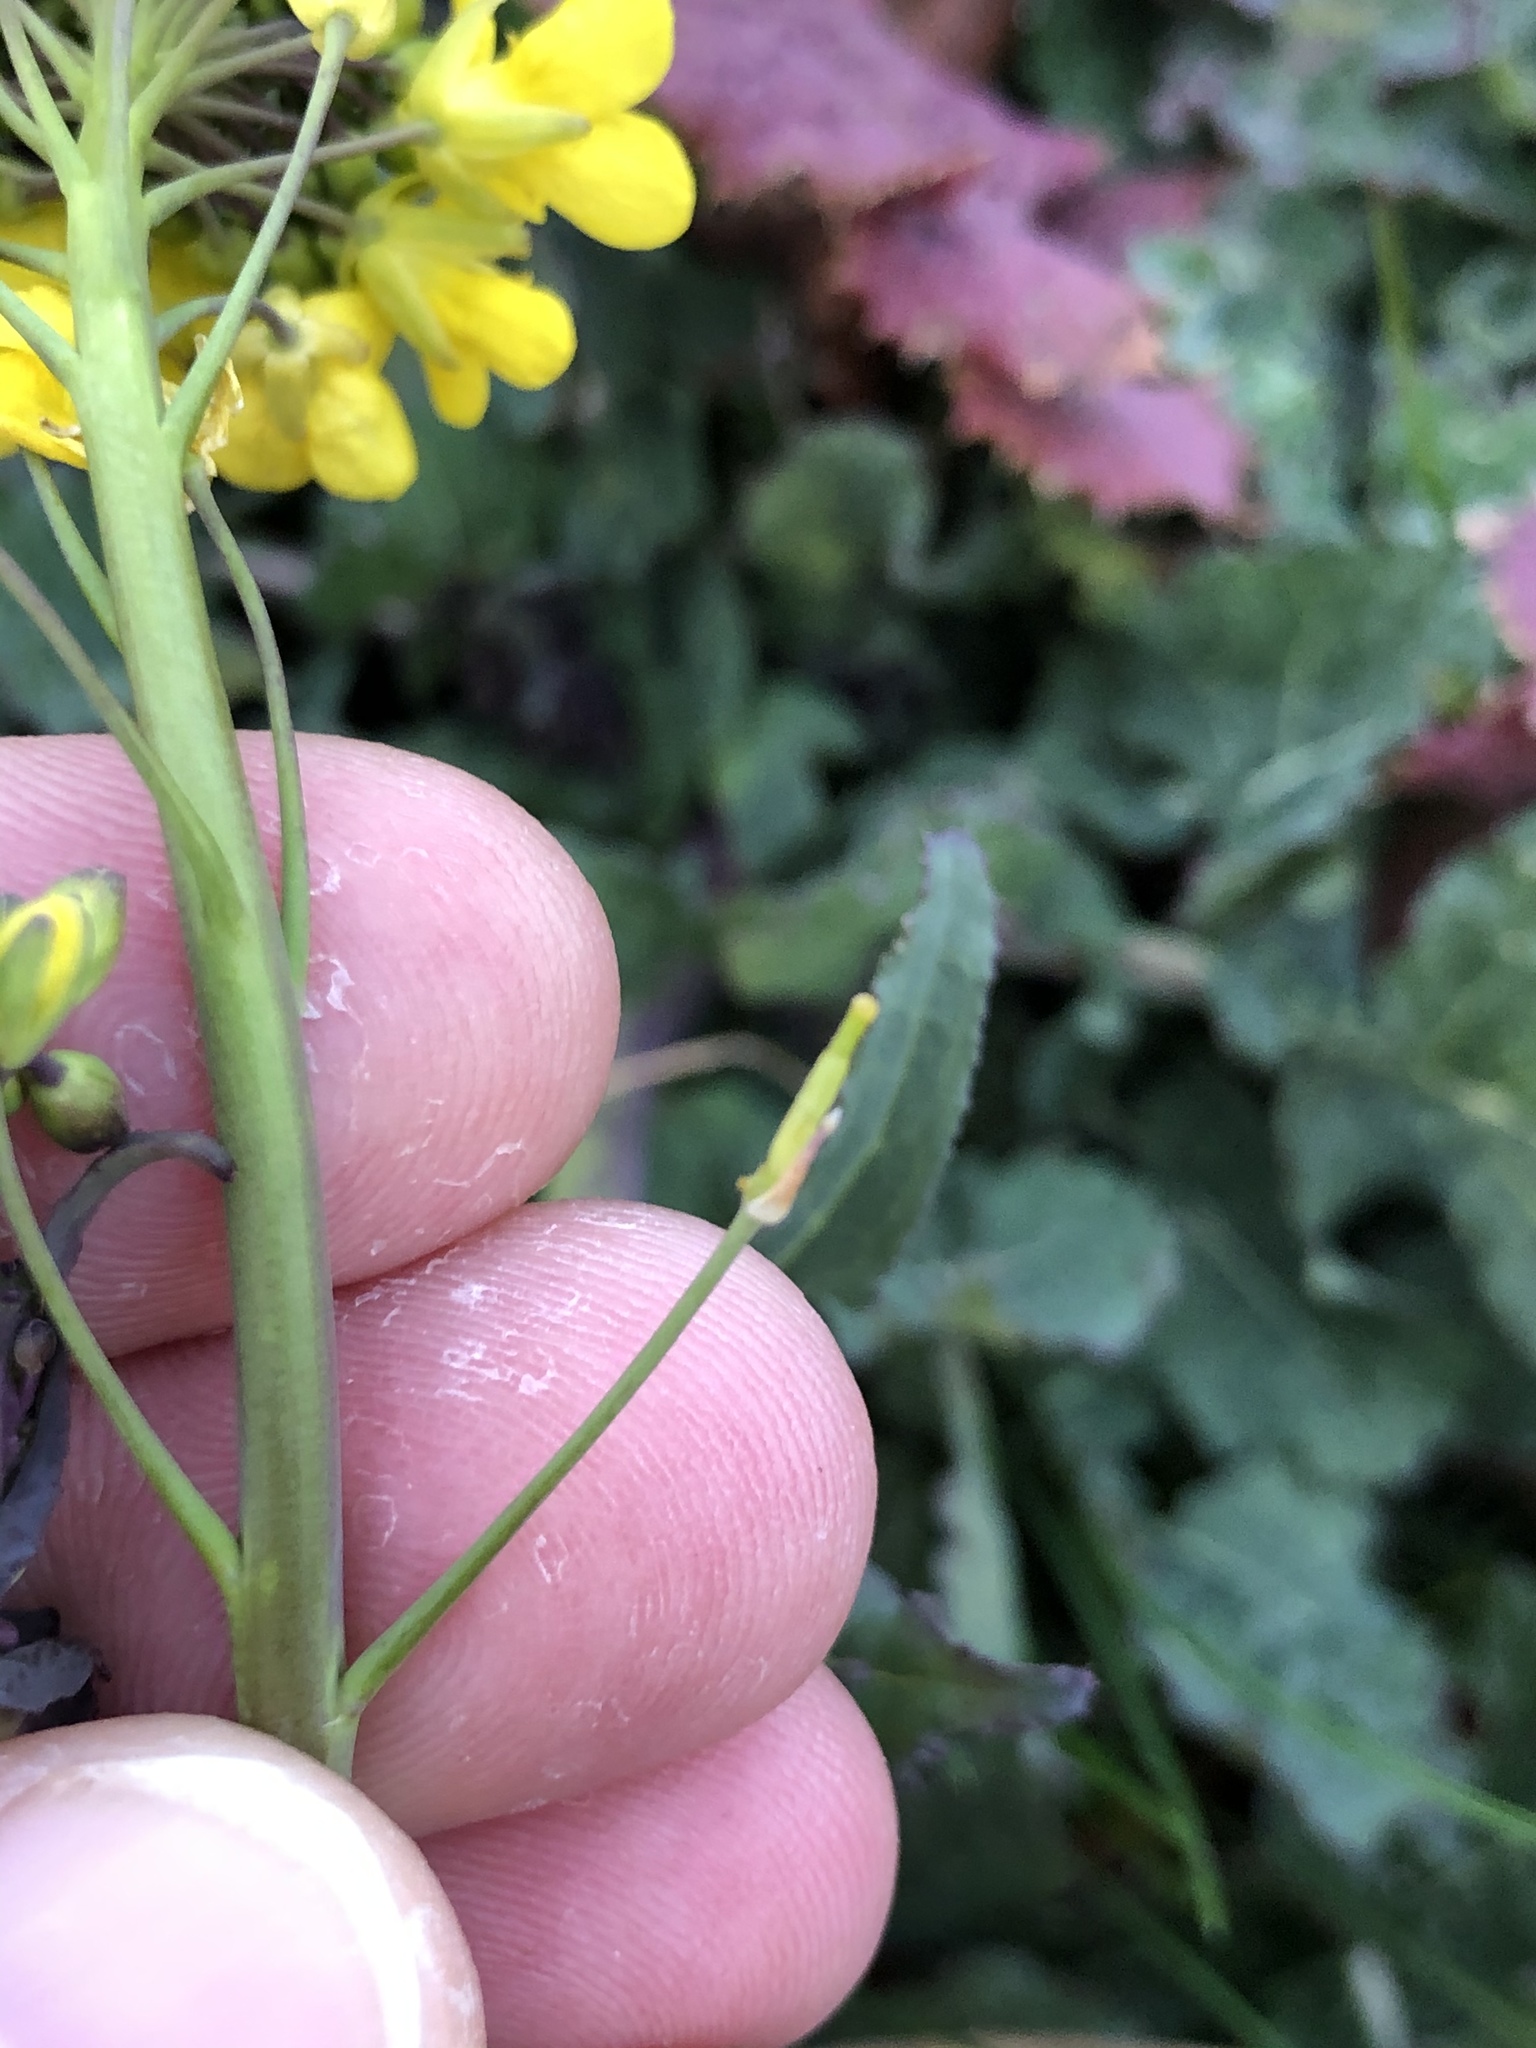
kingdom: Plantae
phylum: Tracheophyta
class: Magnoliopsida
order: Brassicales
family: Brassicaceae
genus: Brassica
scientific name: Brassica rapa
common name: Field mustard
